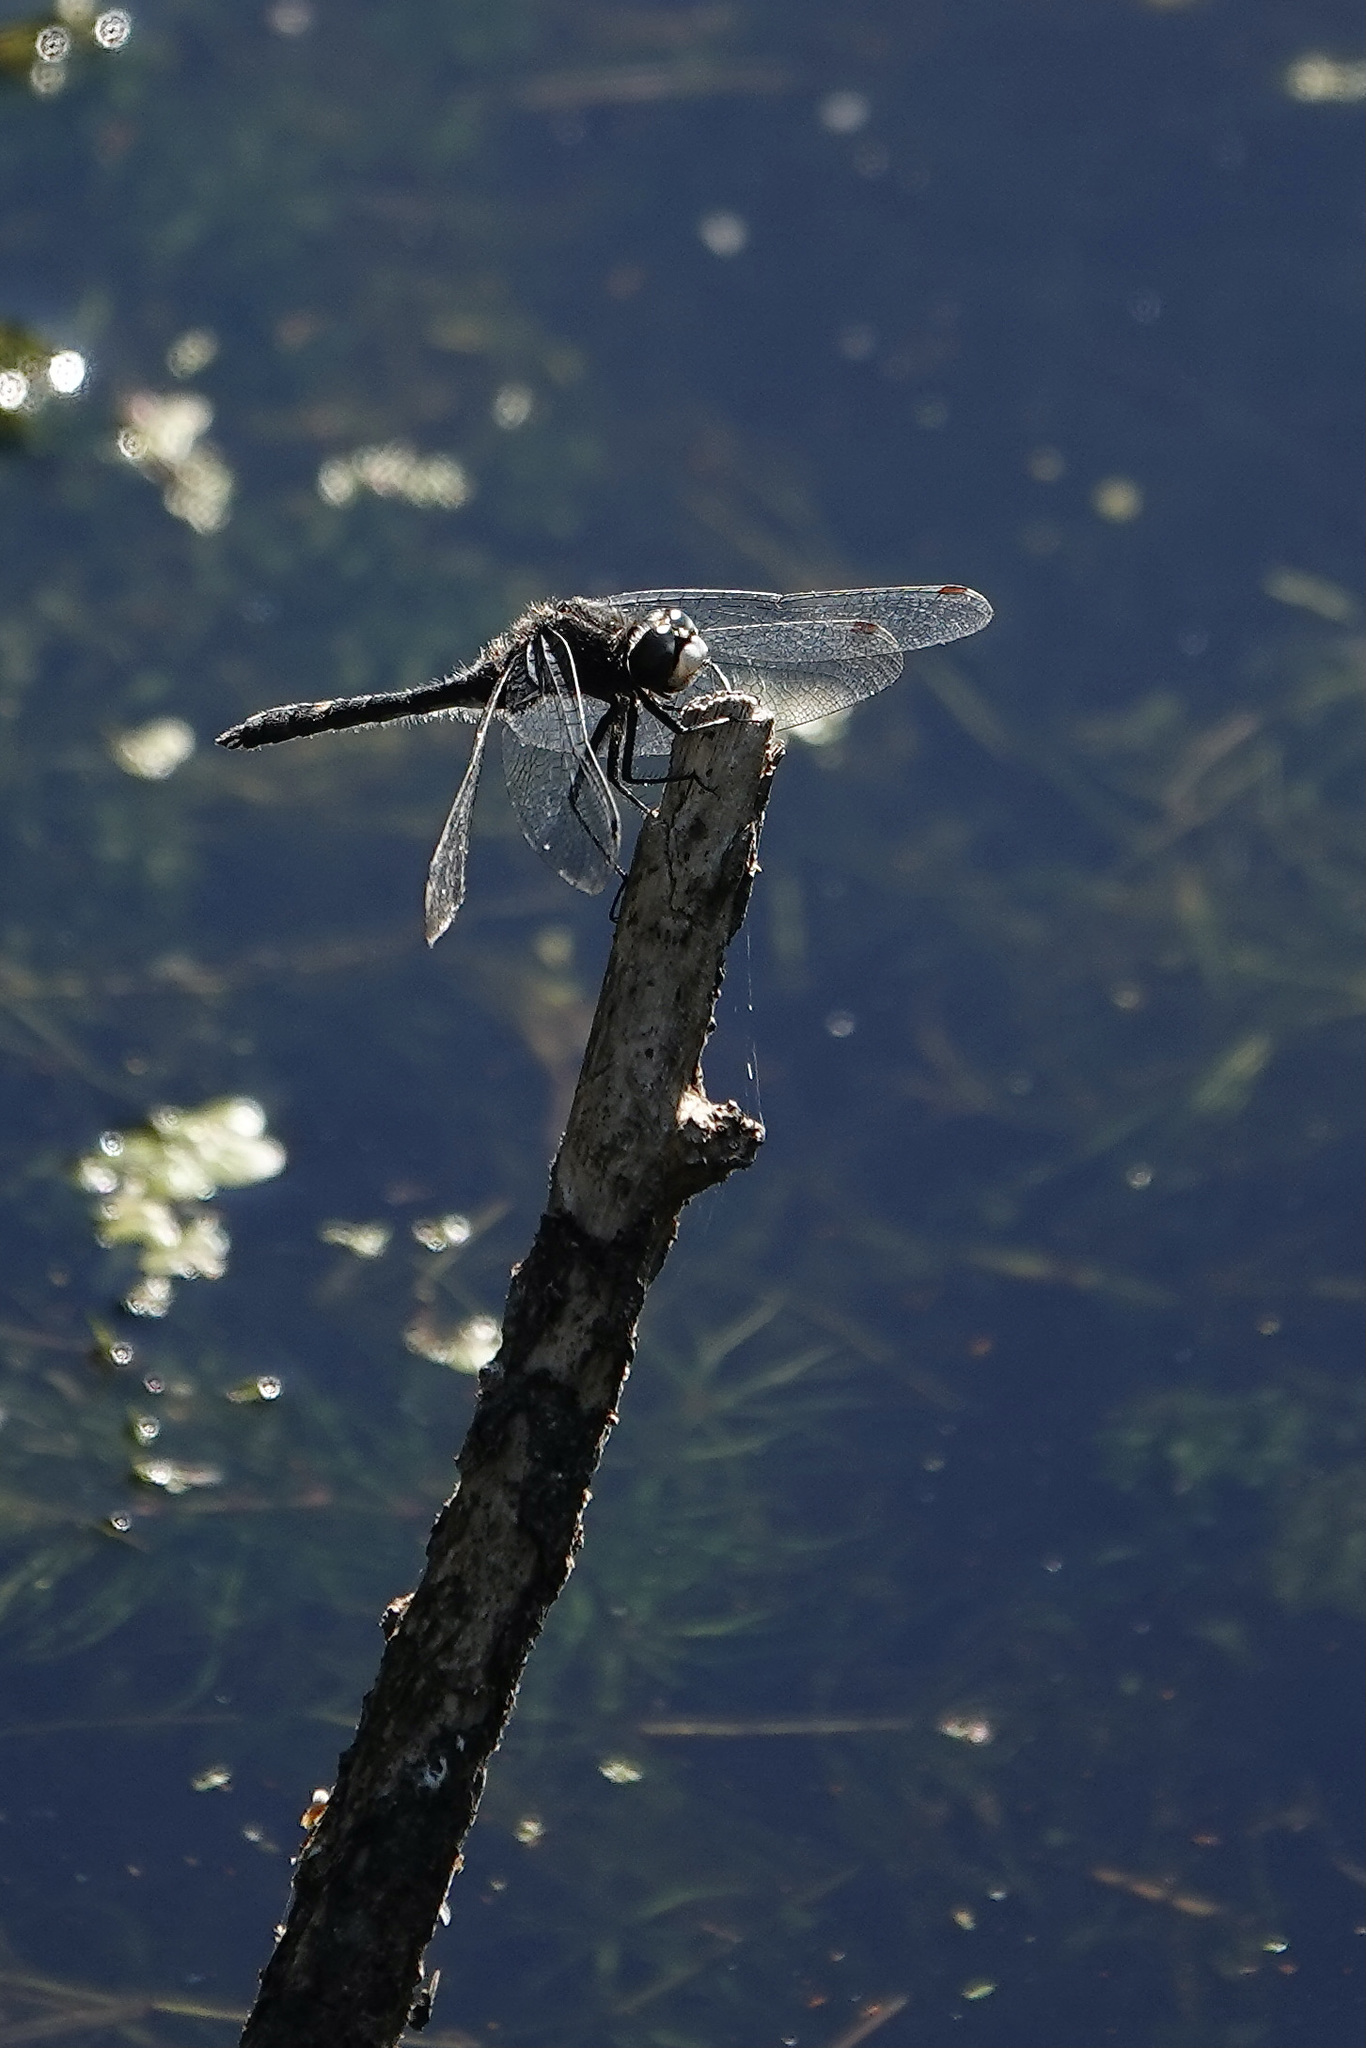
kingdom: Animalia
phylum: Arthropoda
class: Insecta
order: Odonata
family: Libellulidae
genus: Leucorrhinia
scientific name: Leucorrhinia intacta
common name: Dot-tailed whiteface
